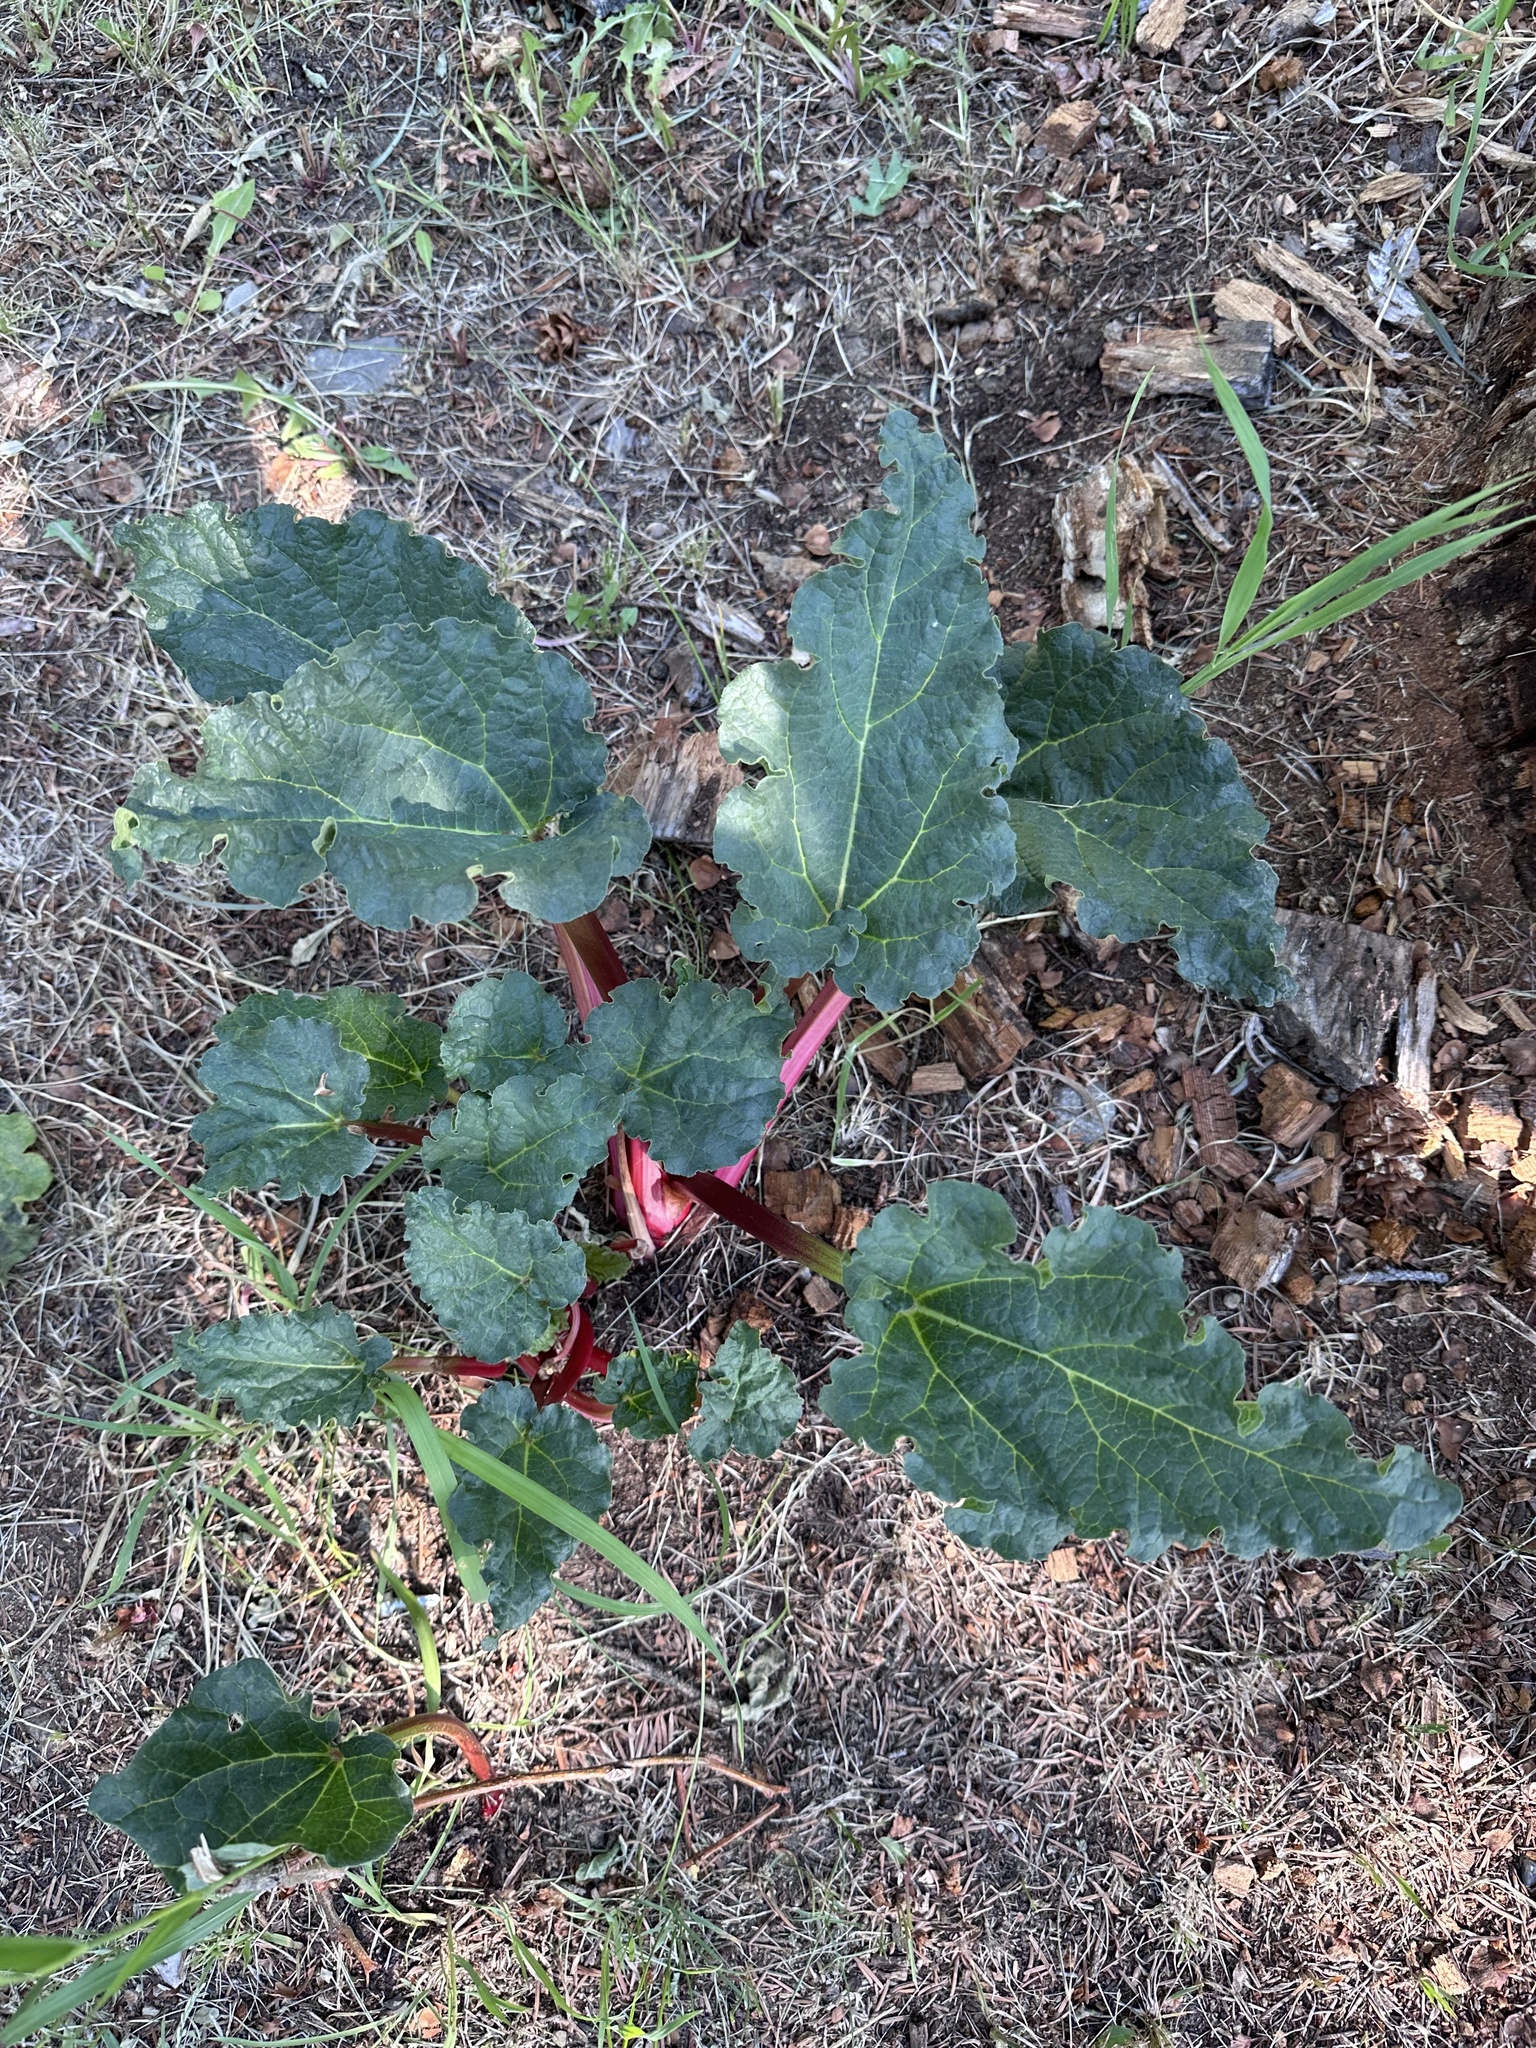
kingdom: Plantae
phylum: Tracheophyta
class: Magnoliopsida
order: Caryophyllales
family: Polygonaceae
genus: Rheum
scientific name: Rheum rhabarbarum
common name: Garden rhubarb
